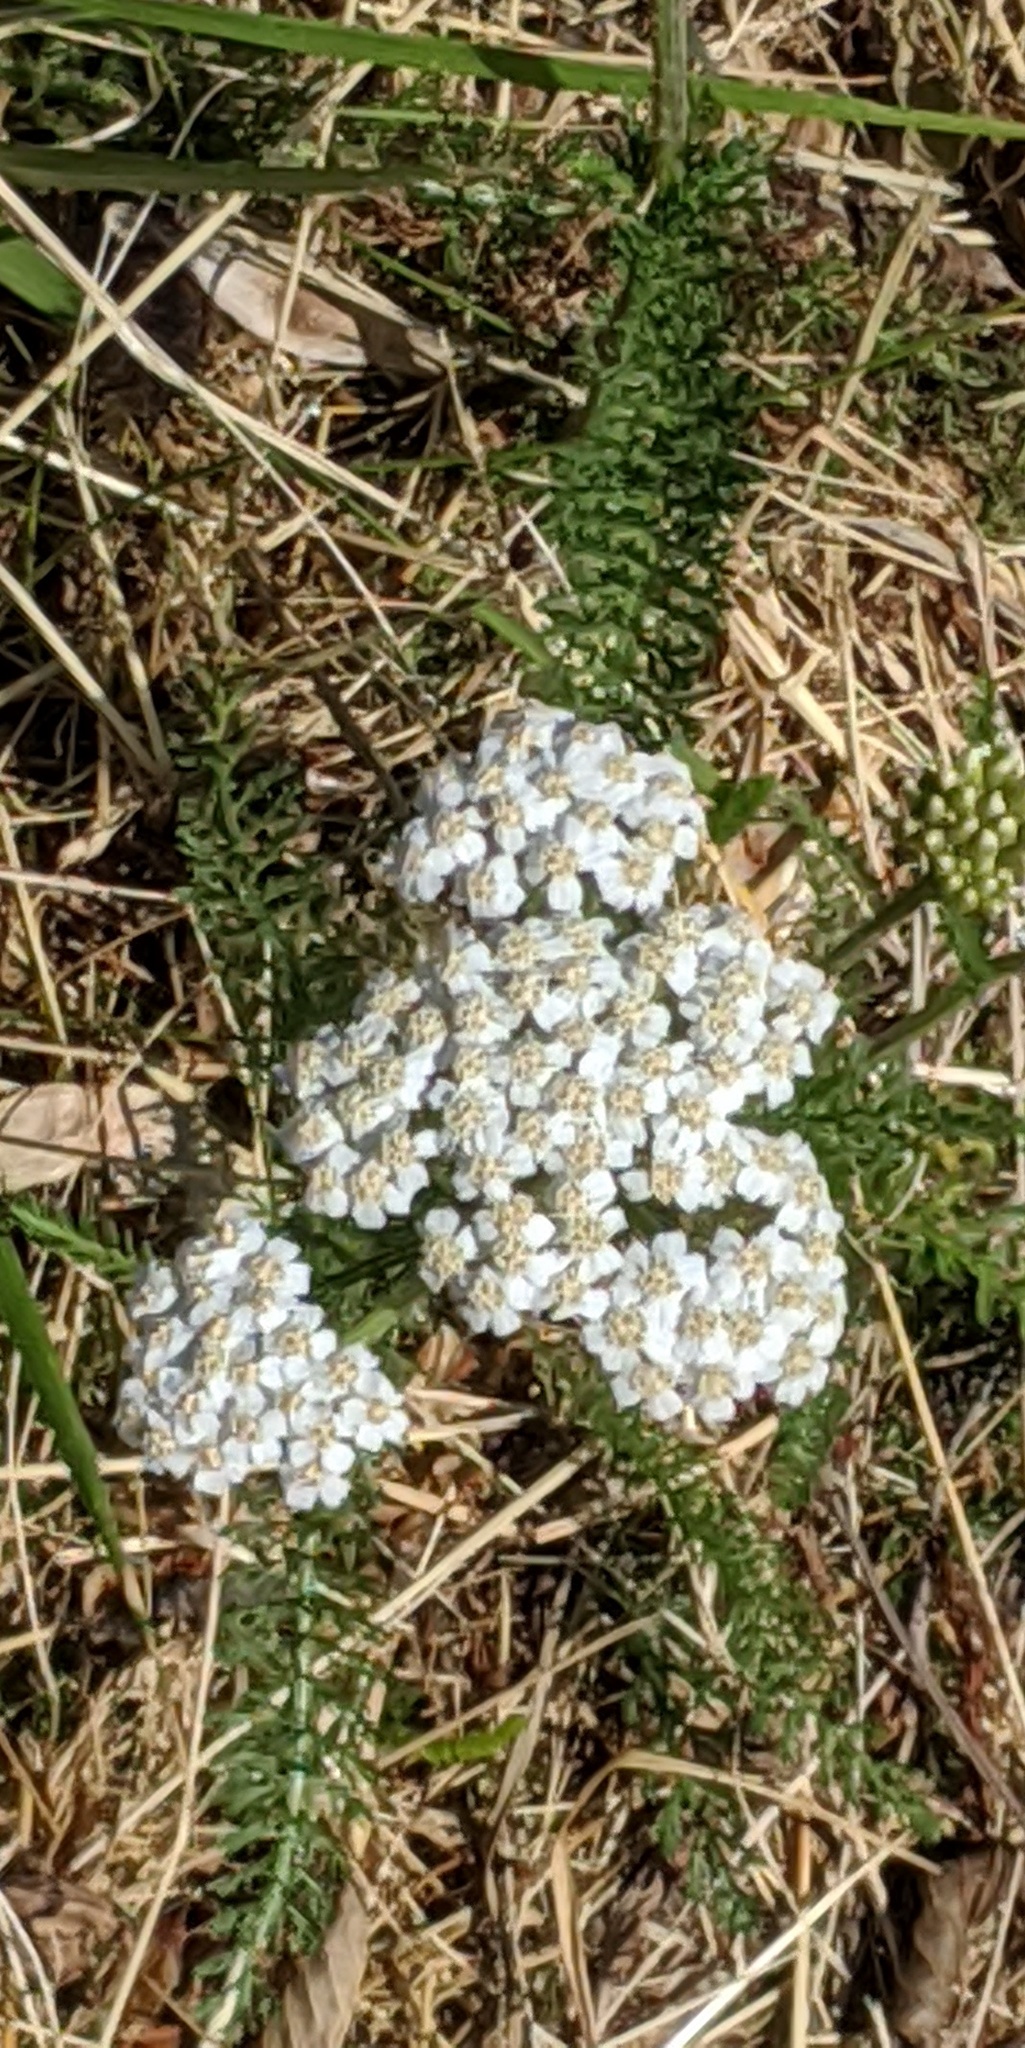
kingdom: Plantae
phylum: Tracheophyta
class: Magnoliopsida
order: Asterales
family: Asteraceae
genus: Achillea
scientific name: Achillea millefolium
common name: Yarrow
